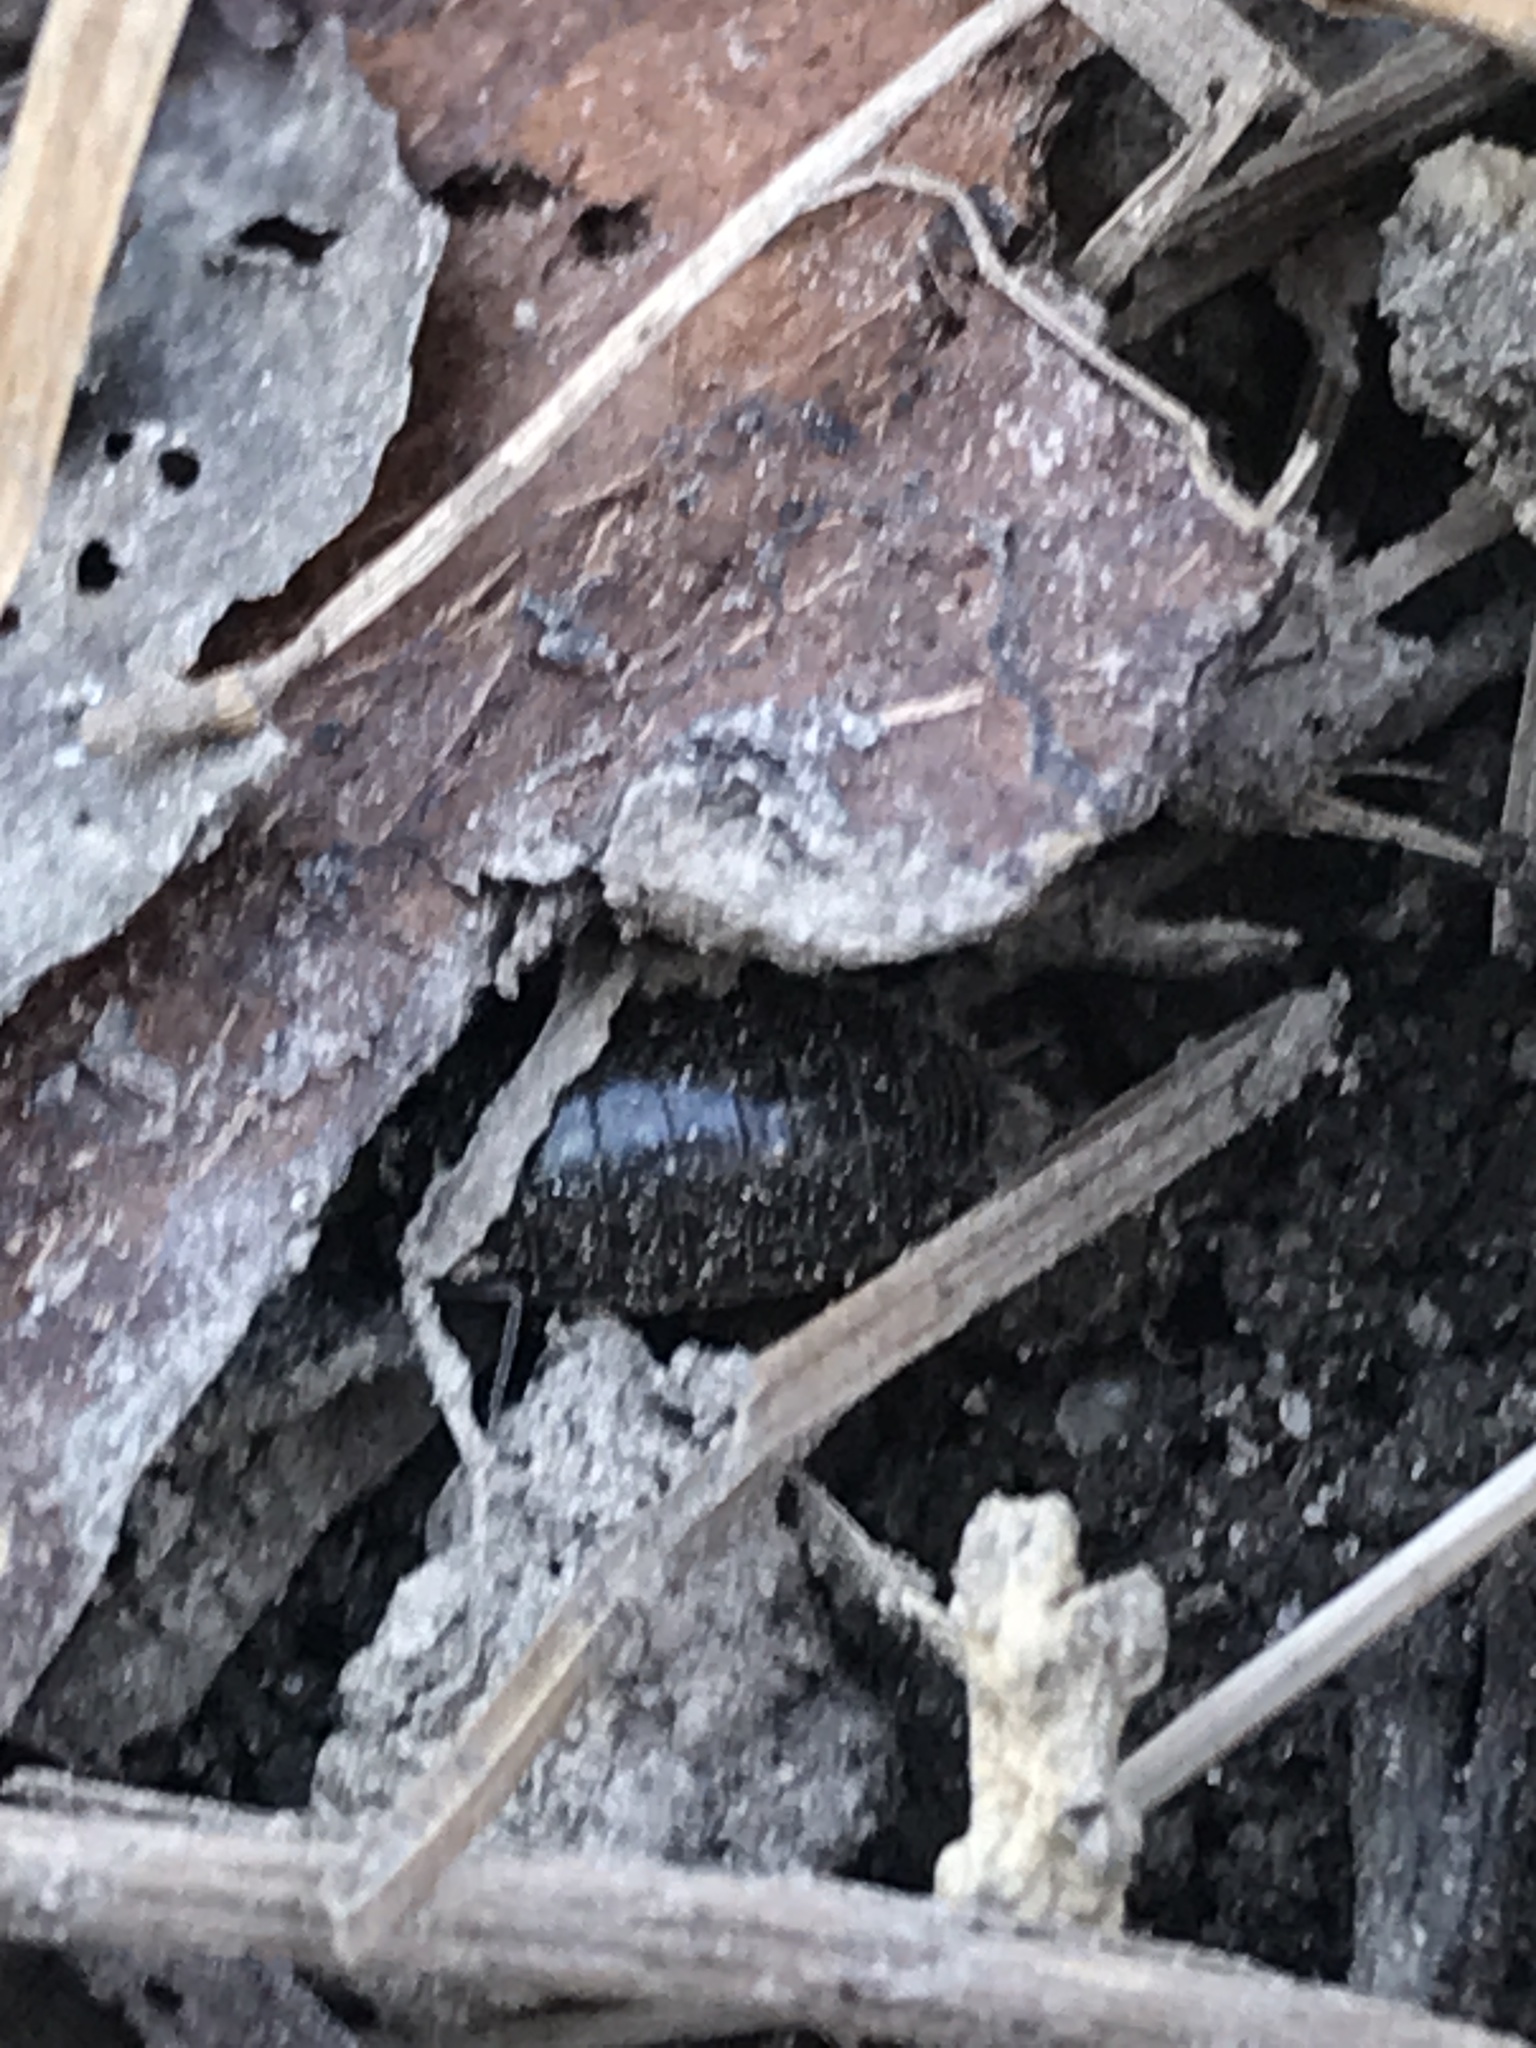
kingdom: Animalia
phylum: Arthropoda
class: Malacostraca
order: Isopoda
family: Philosciidae
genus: Philoscia
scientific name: Philoscia muscorum
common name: Common striped woodlouse
